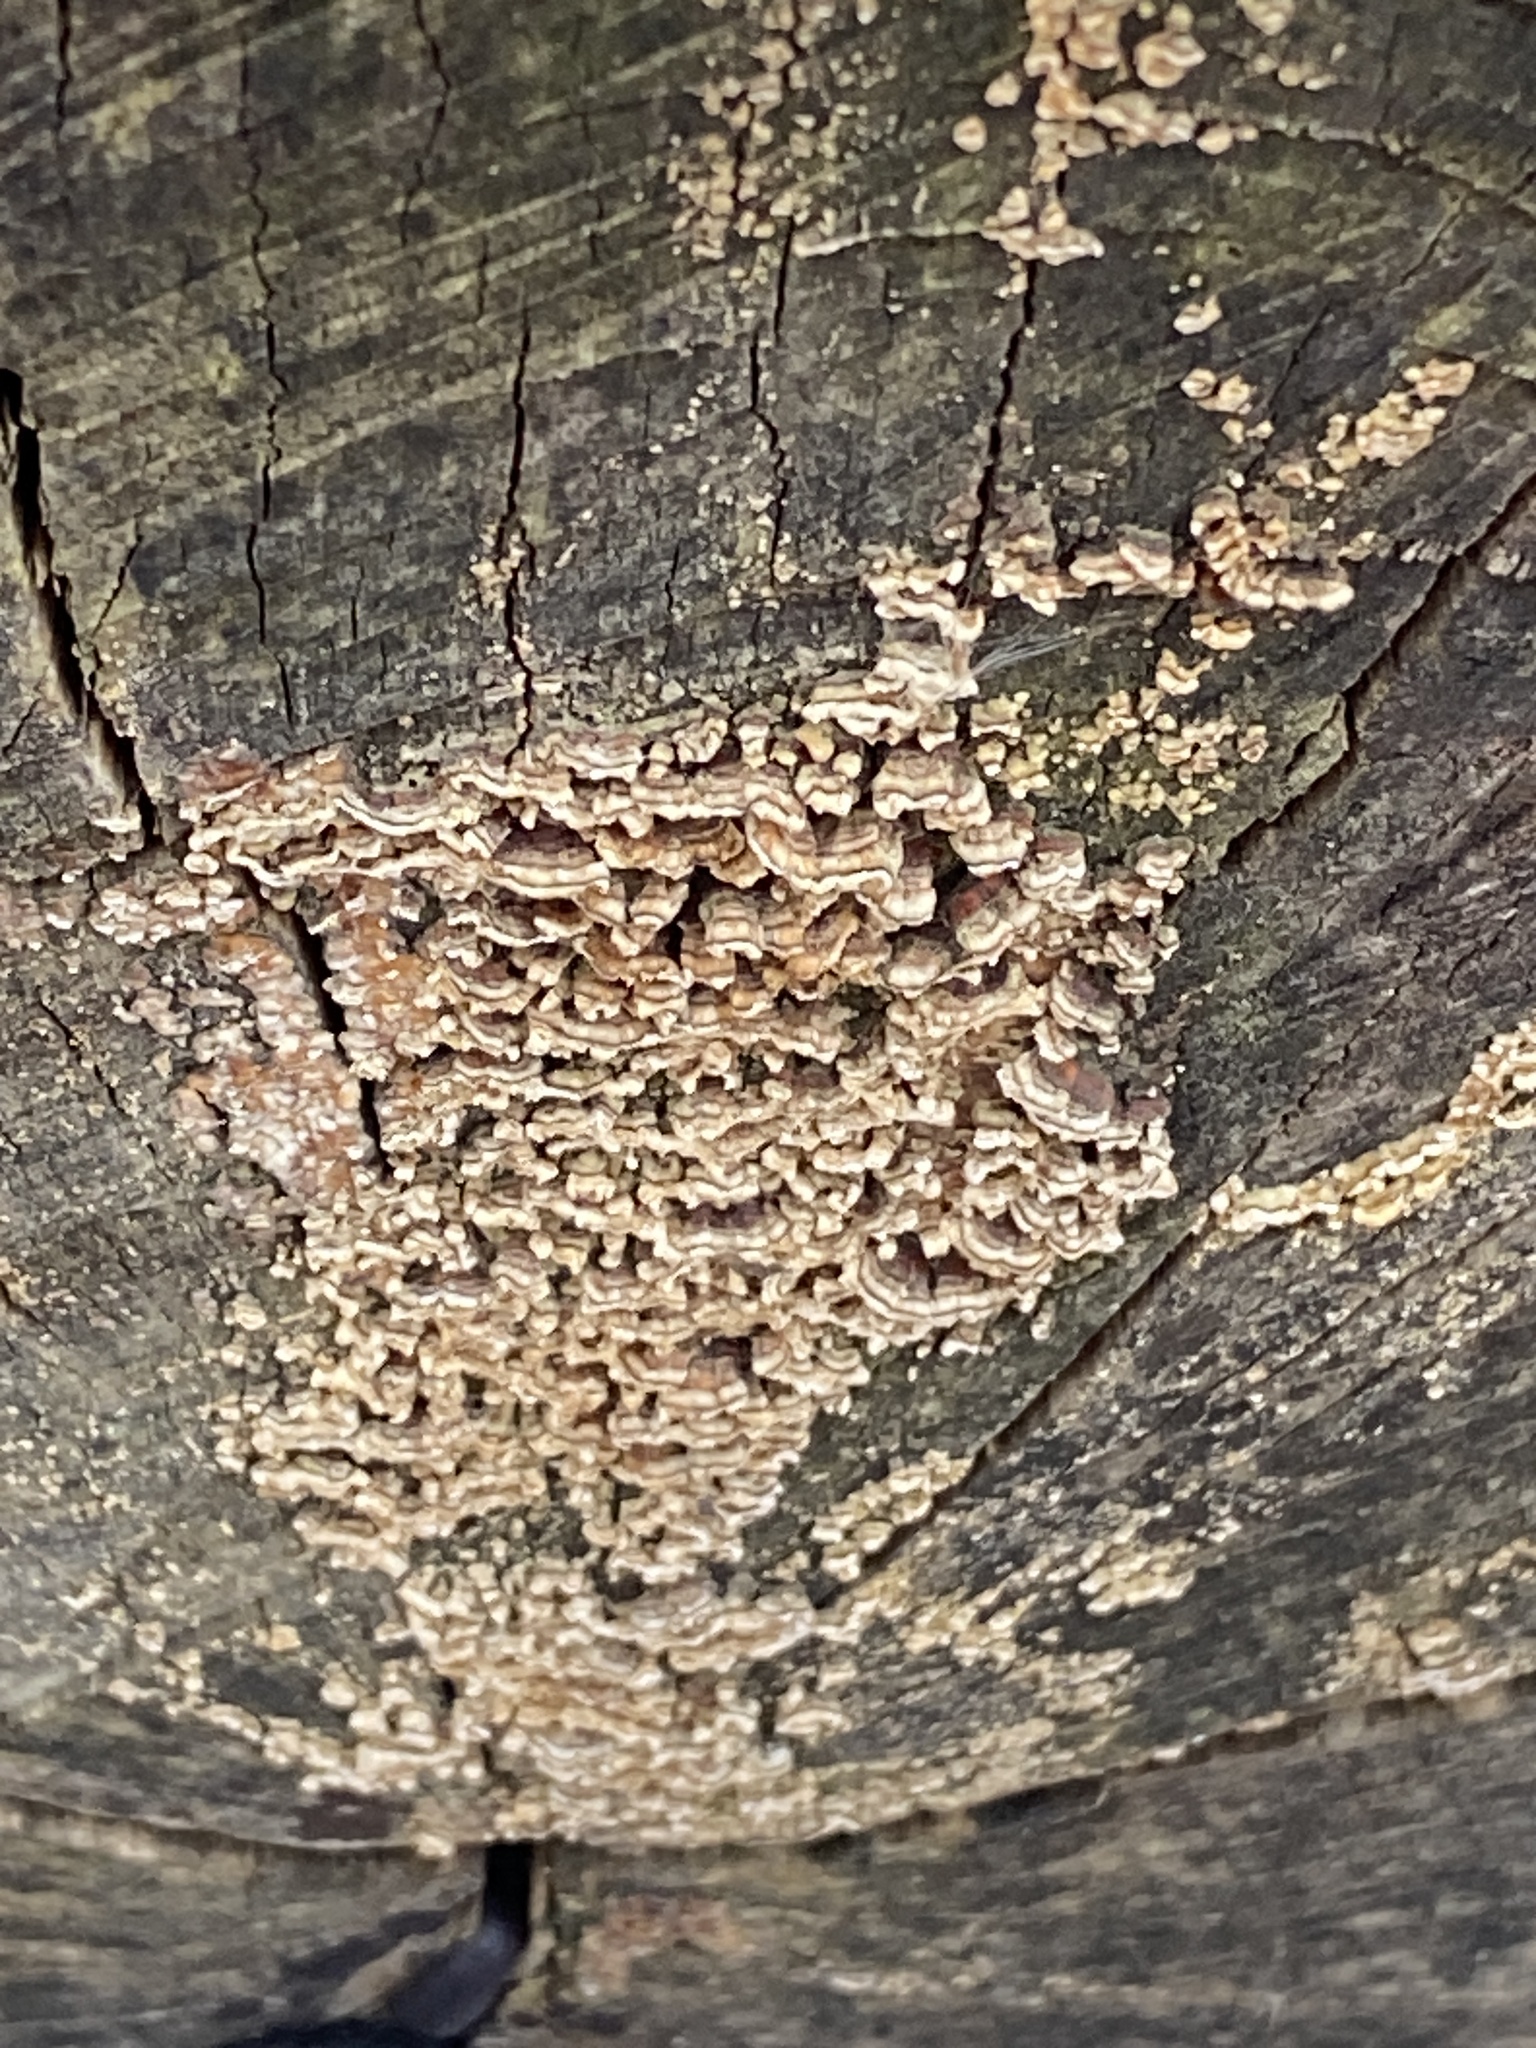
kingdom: Fungi
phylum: Basidiomycota
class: Agaricomycetes
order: Russulales
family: Stereaceae
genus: Stereum
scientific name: Stereum complicatum
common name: Crowded parchment
